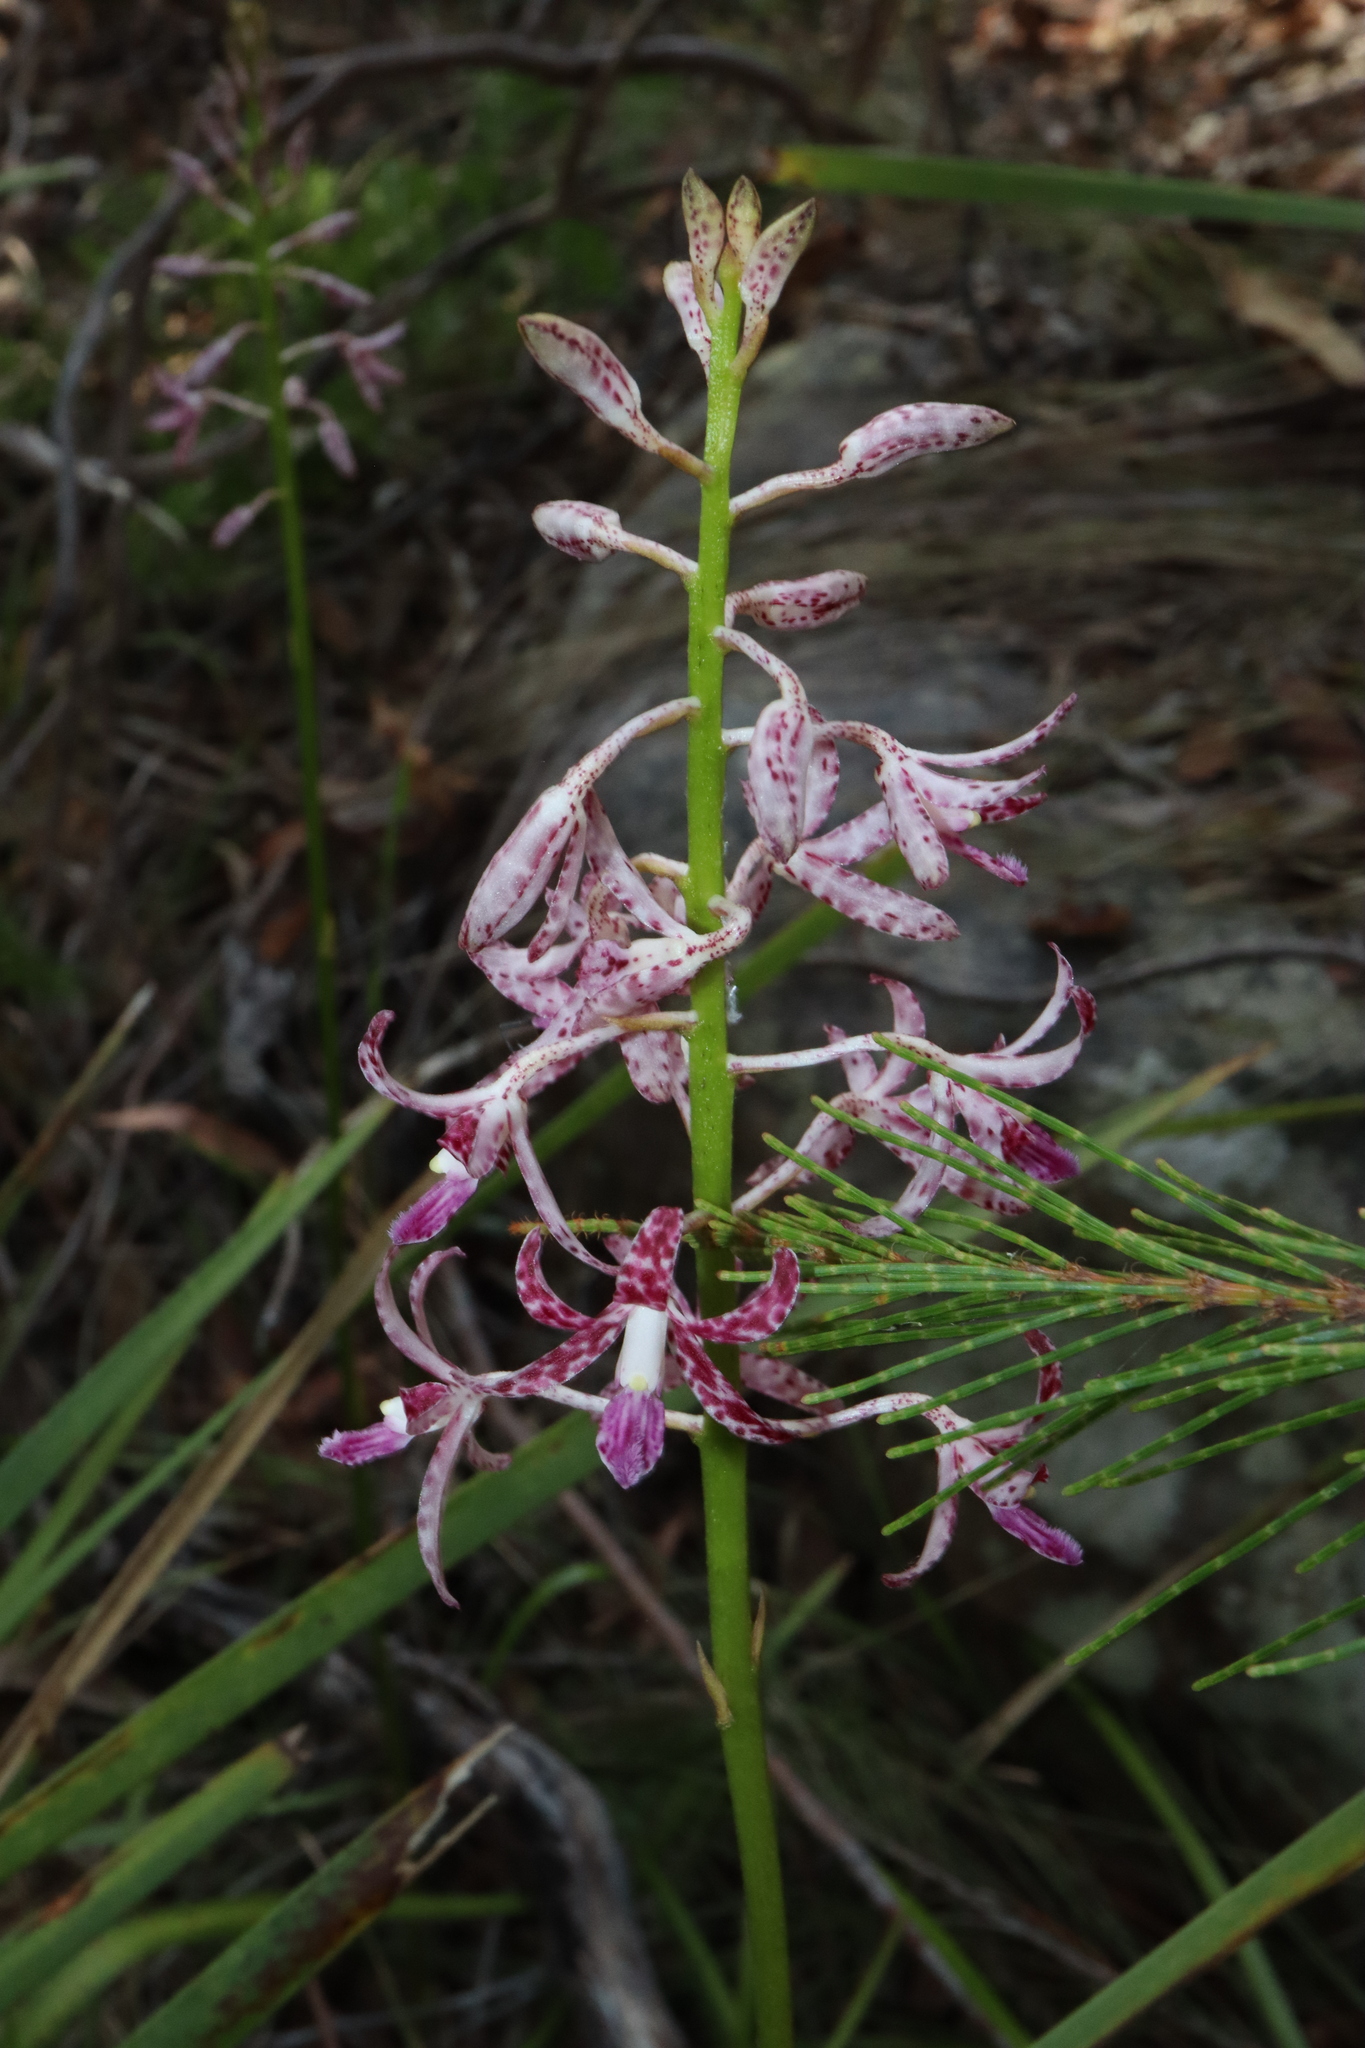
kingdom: Plantae
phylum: Tracheophyta
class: Liliopsida
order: Asparagales
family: Orchidaceae
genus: Dipodium
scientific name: Dipodium variegatum
